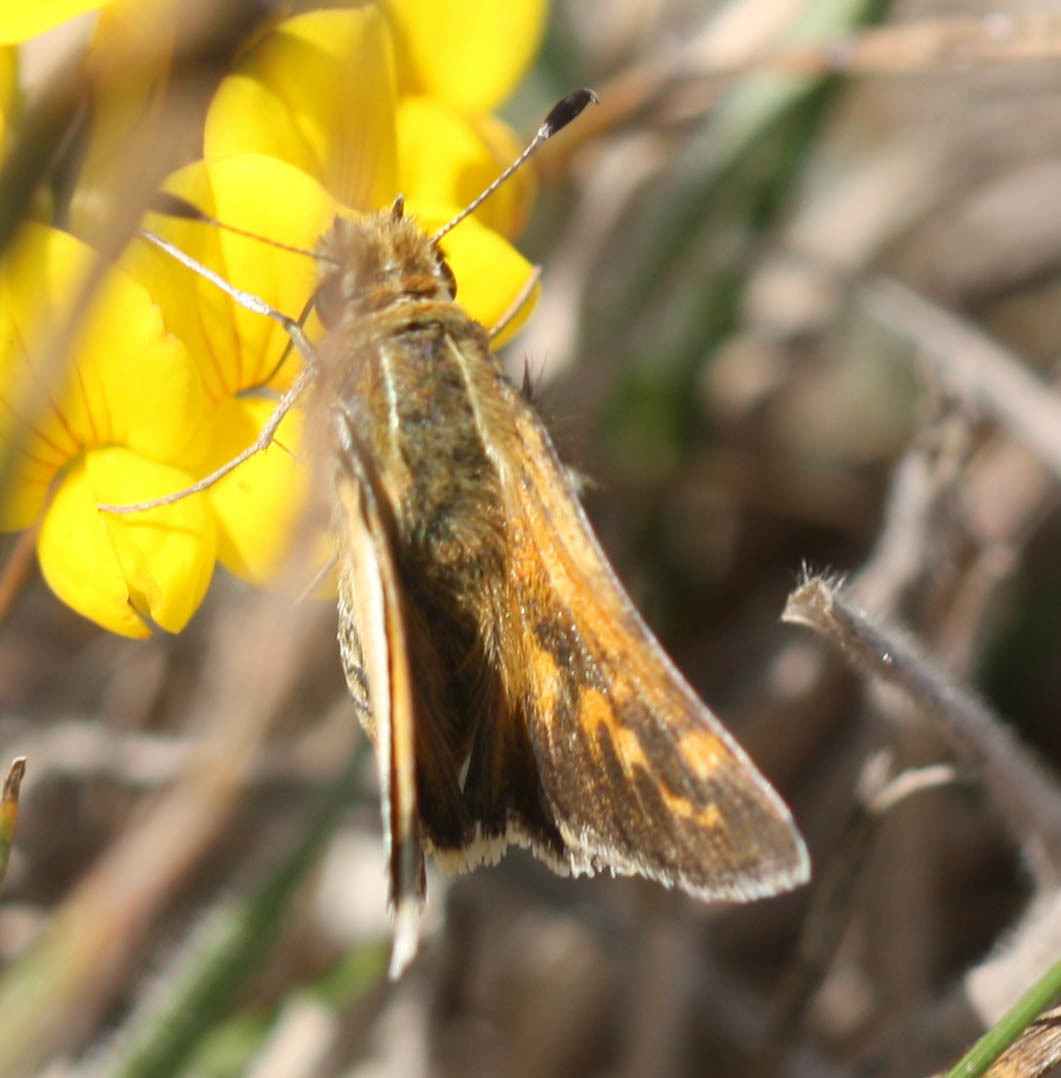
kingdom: Animalia
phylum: Arthropoda
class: Insecta
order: Lepidoptera
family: Hesperiidae
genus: Hylephila
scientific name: Hylephila phyleus
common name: Fiery skipper
